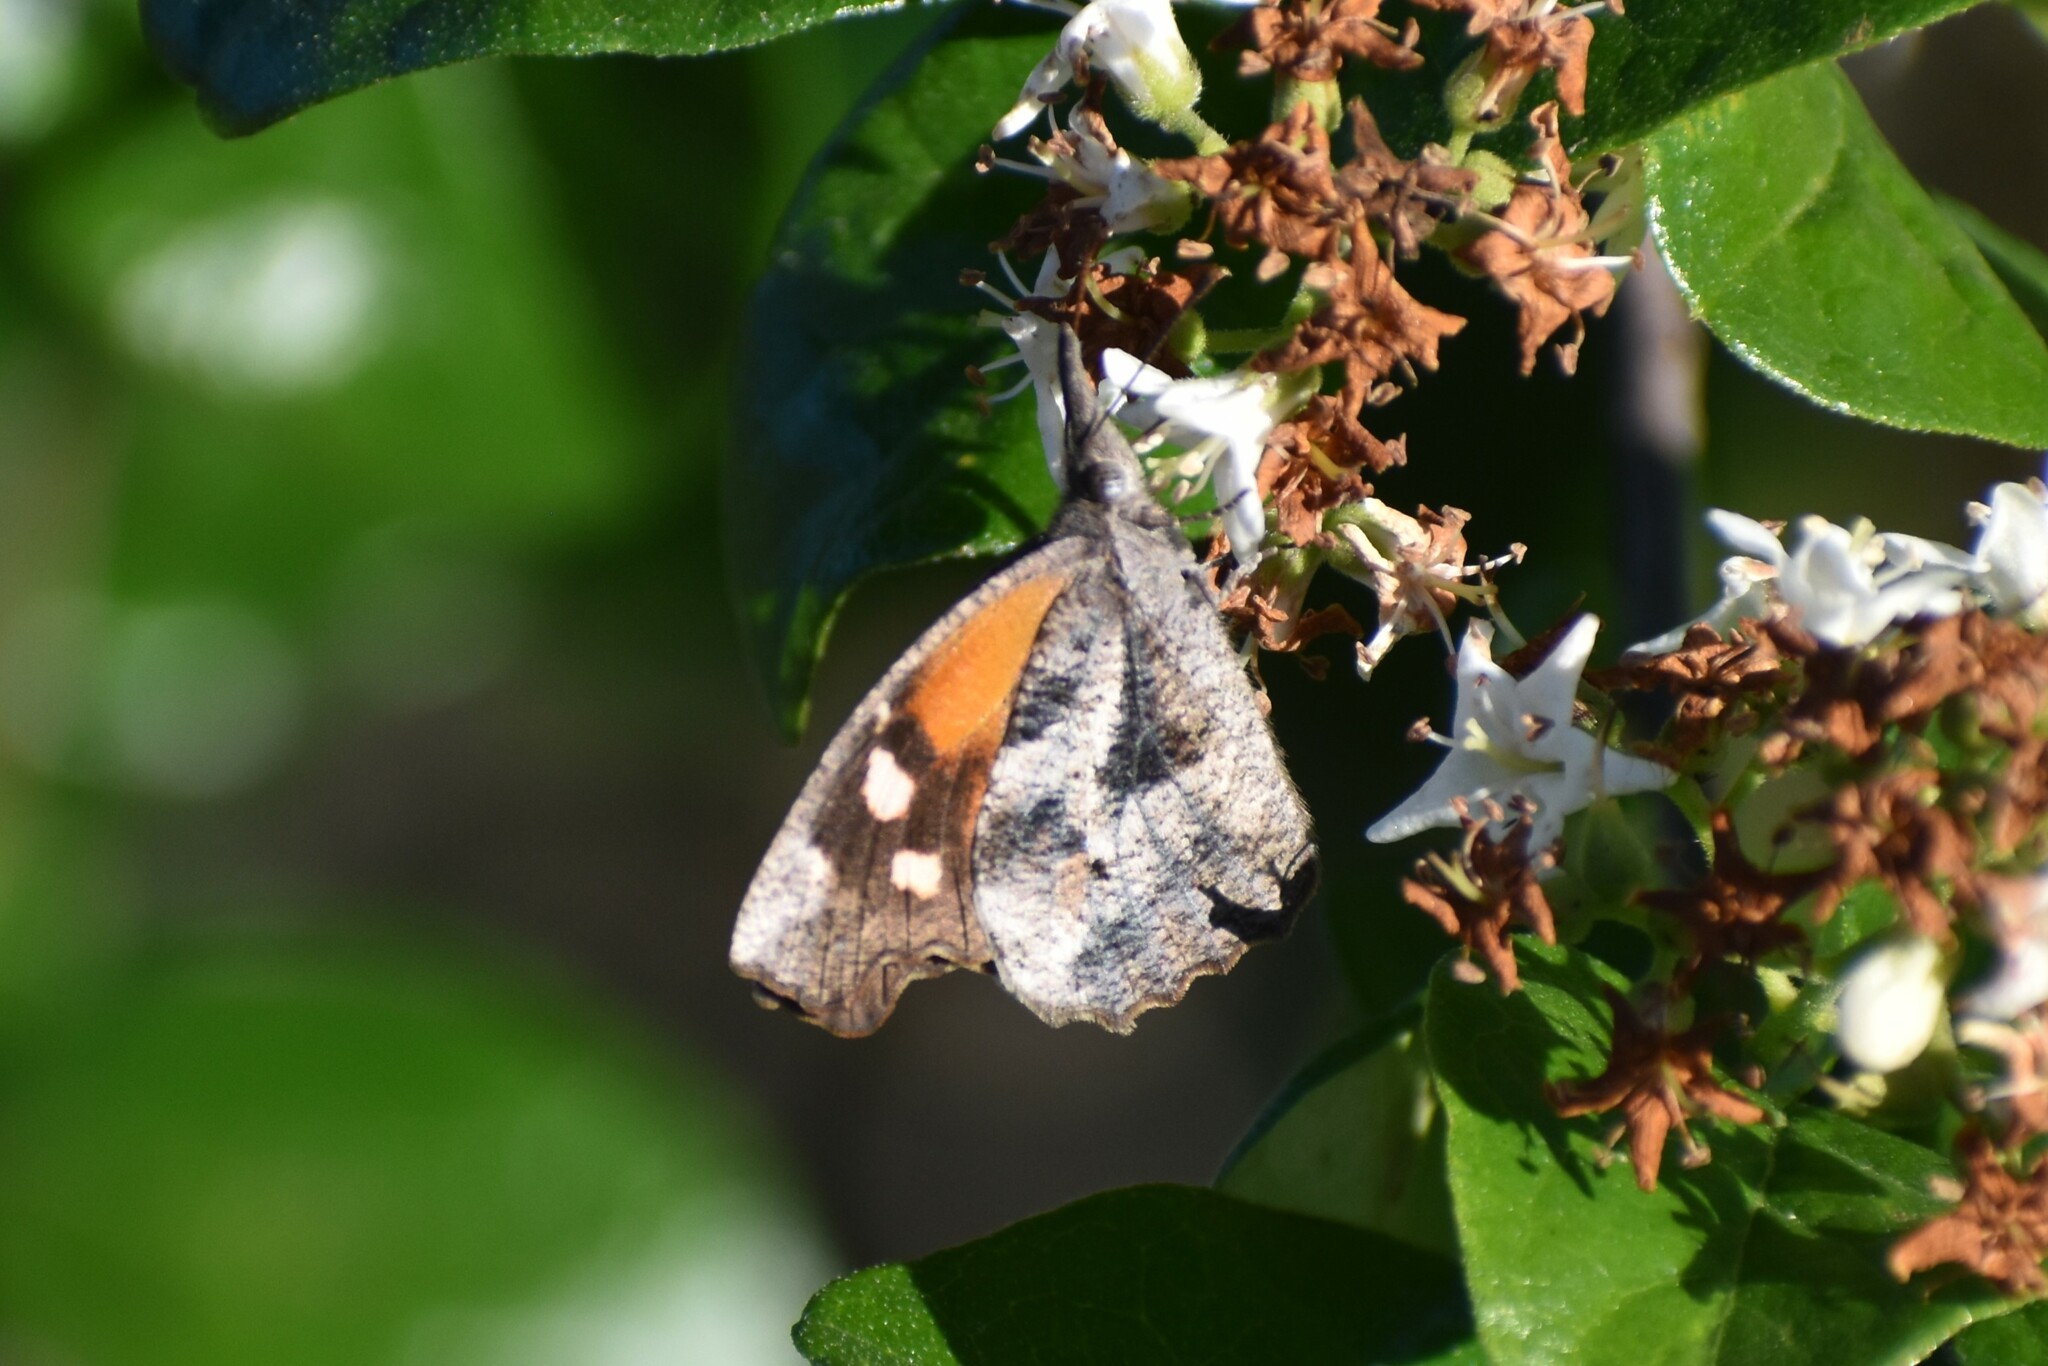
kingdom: Animalia
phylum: Arthropoda
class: Insecta
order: Lepidoptera
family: Nymphalidae
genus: Libytheana
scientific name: Libytheana carinenta
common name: American snout
